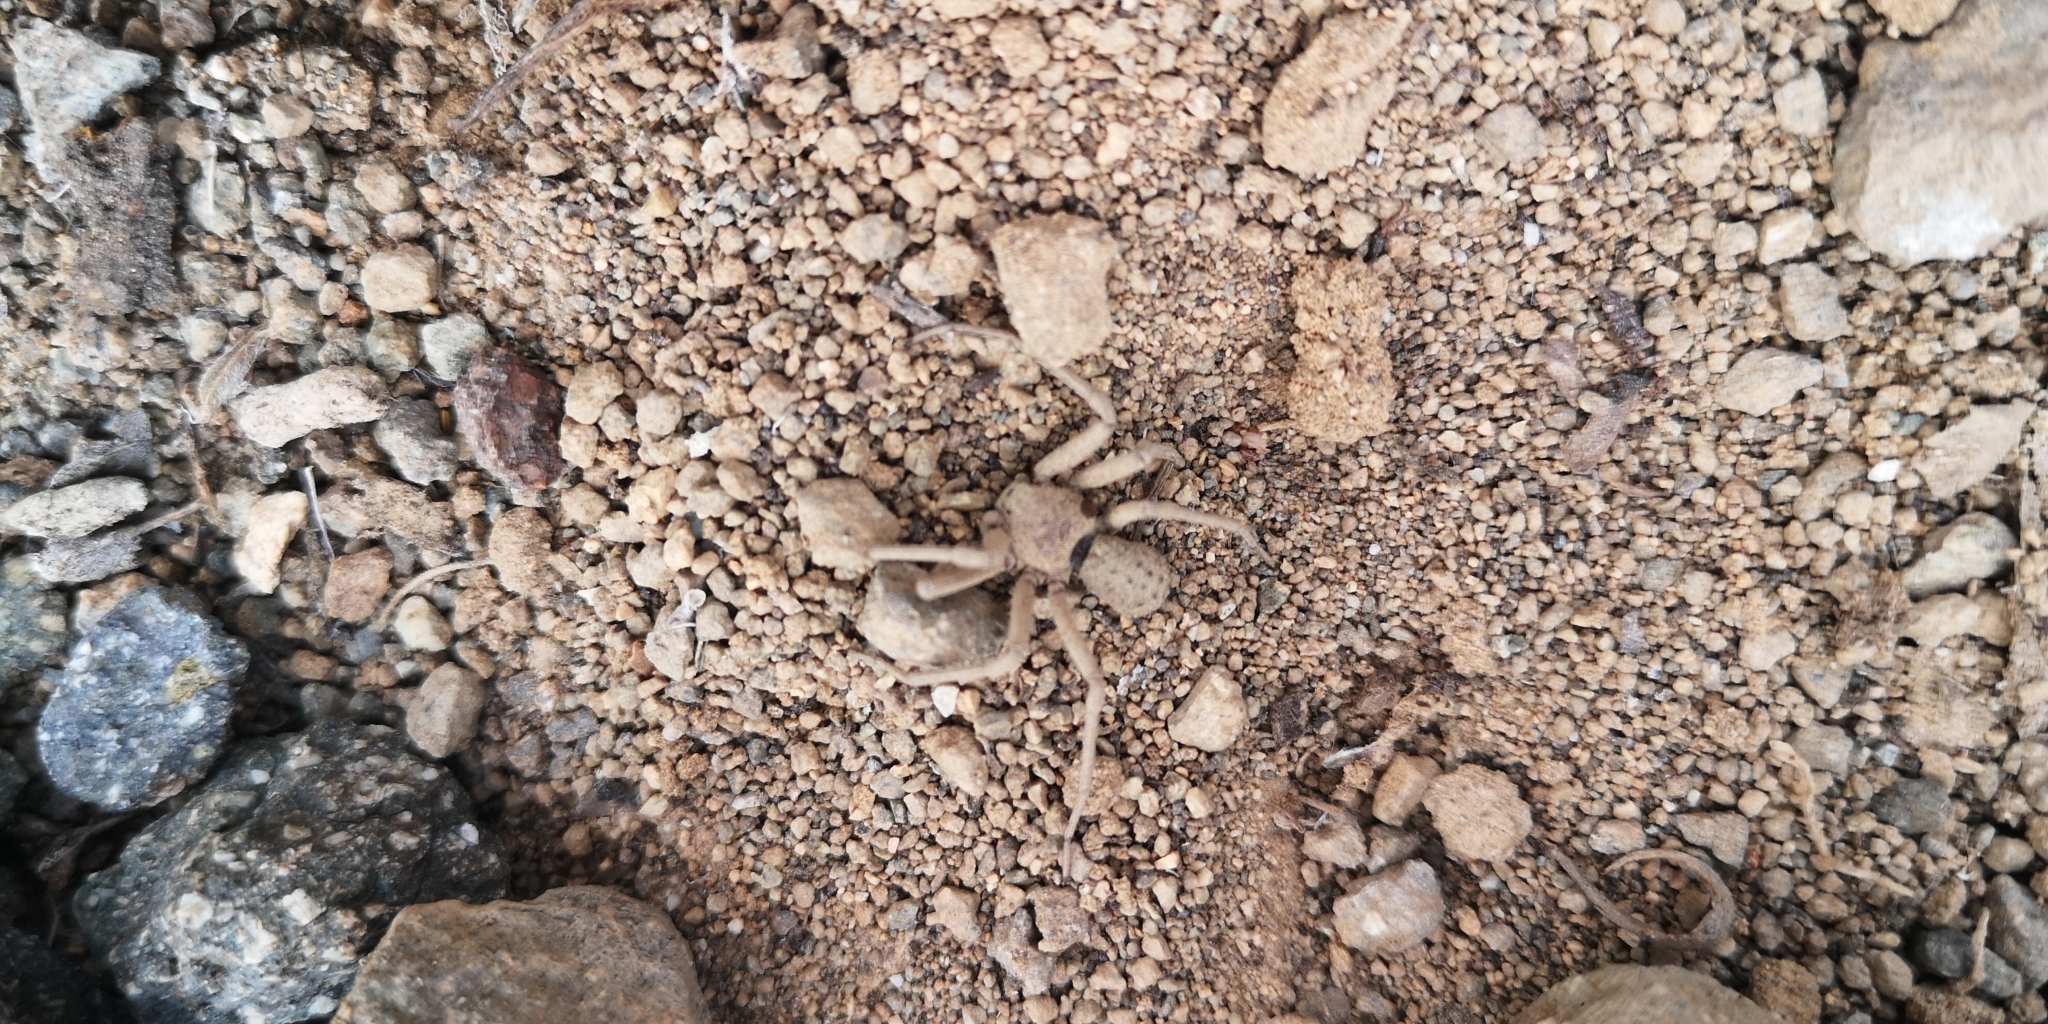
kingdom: Animalia
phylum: Arthropoda
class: Arachnida
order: Araneae
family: Sicariidae
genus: Sicarius
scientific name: Sicarius thomisoides
